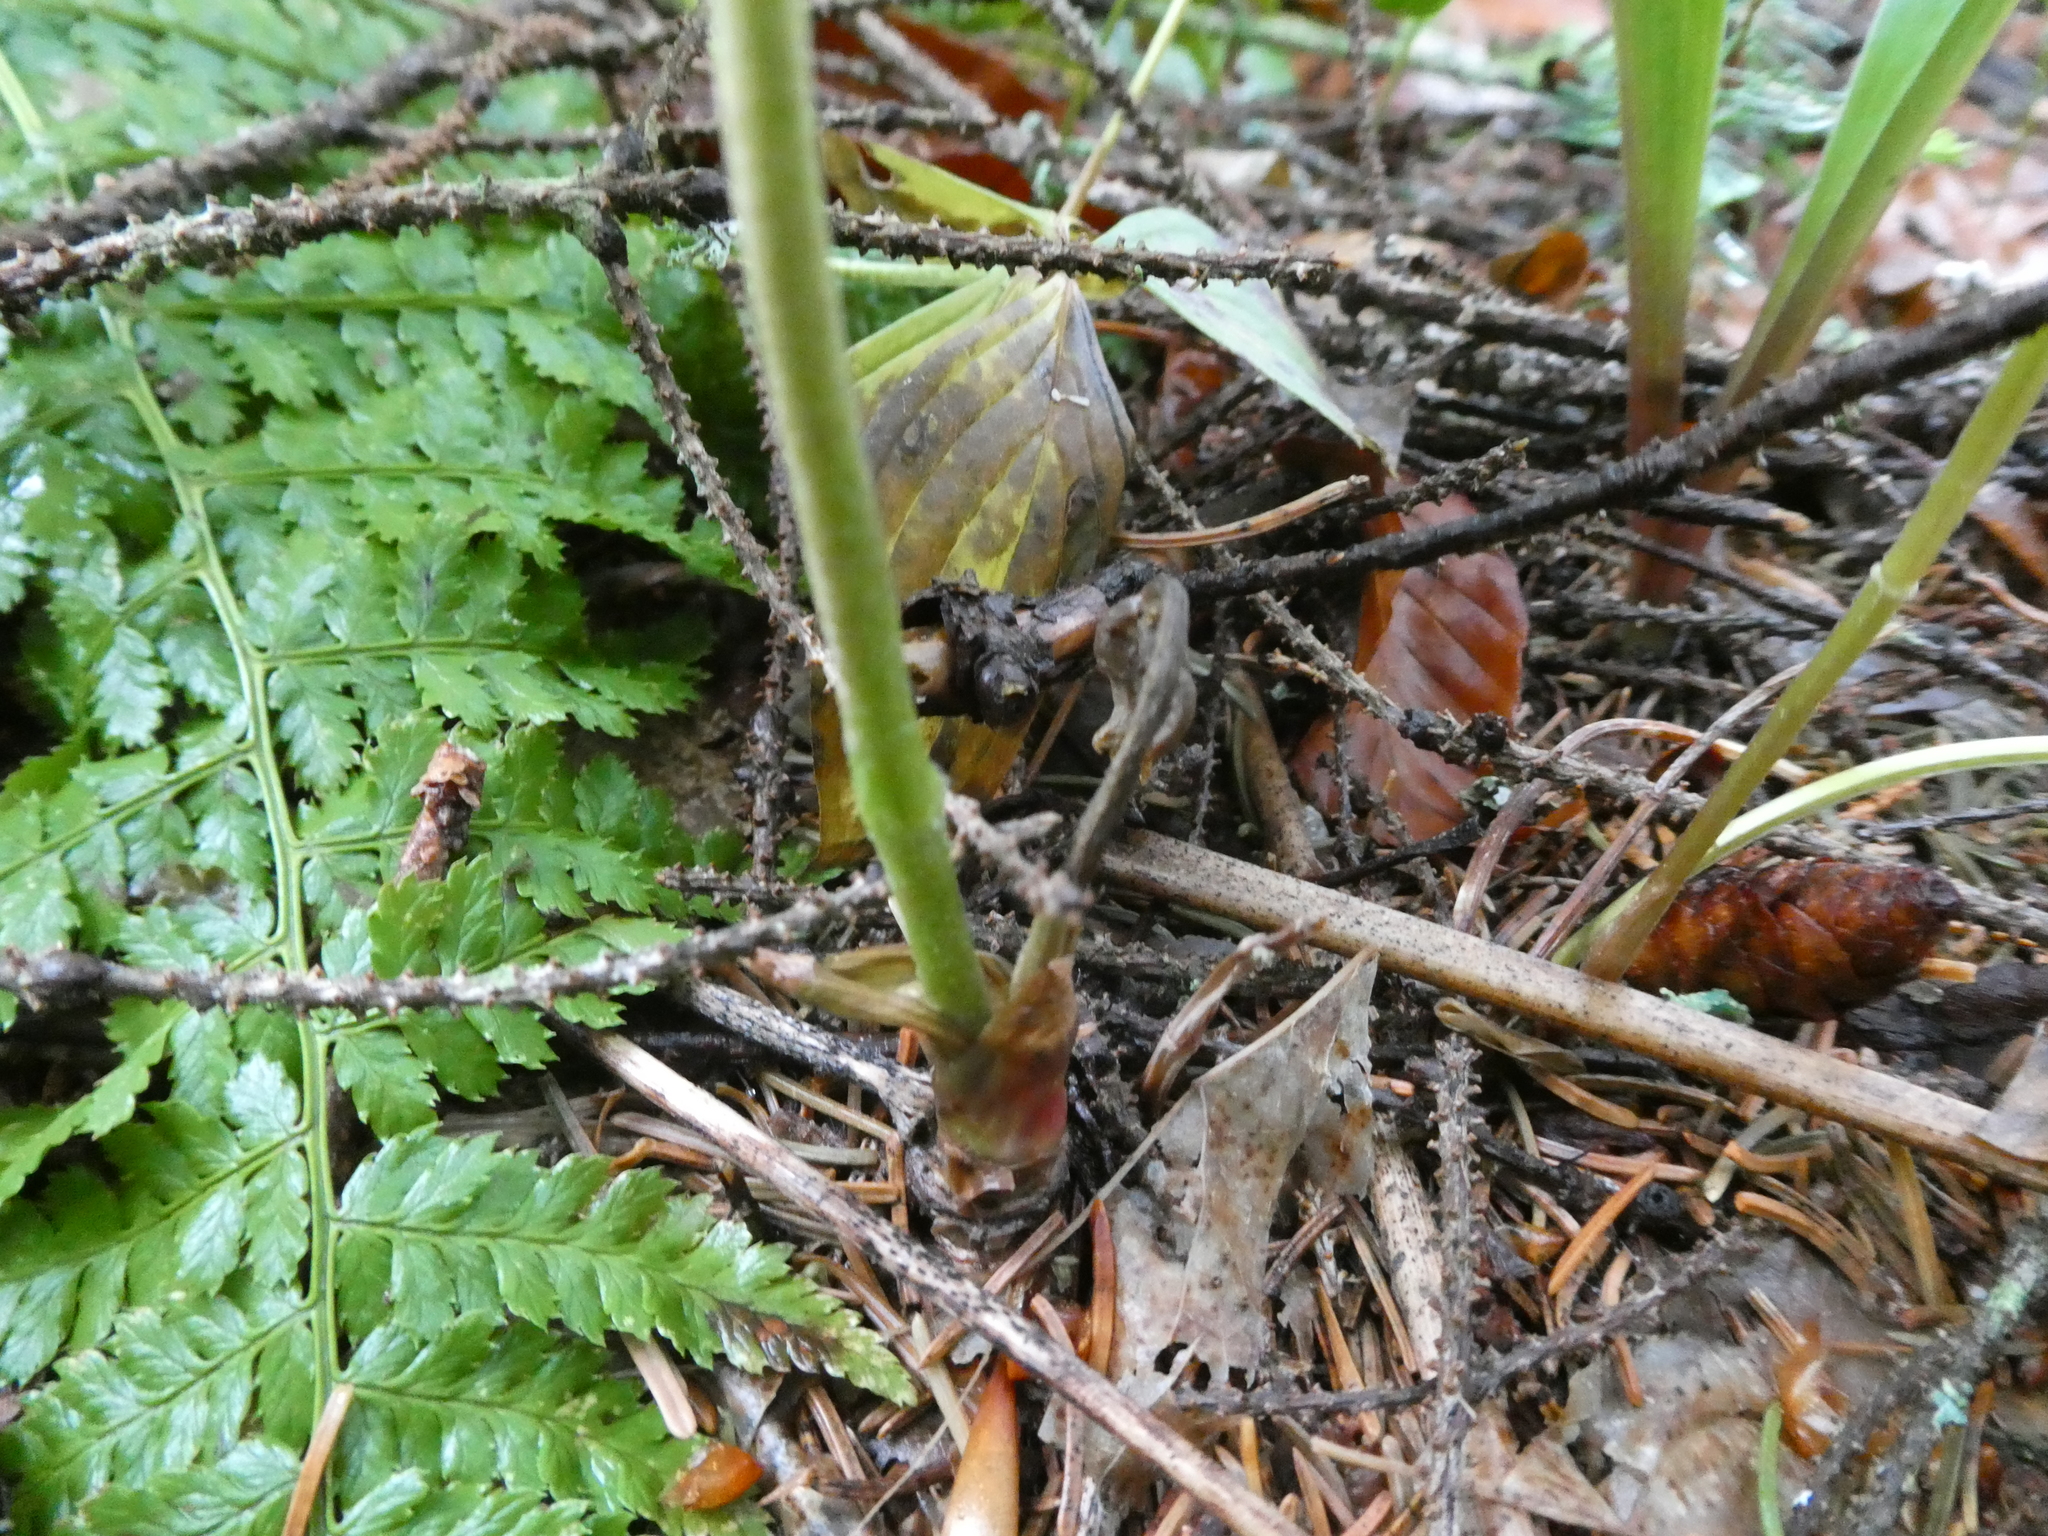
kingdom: Plantae
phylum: Tracheophyta
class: Magnoliopsida
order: Apiales
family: Araliaceae
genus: Aralia
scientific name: Aralia nudicaulis
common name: Wild sarsaparilla
